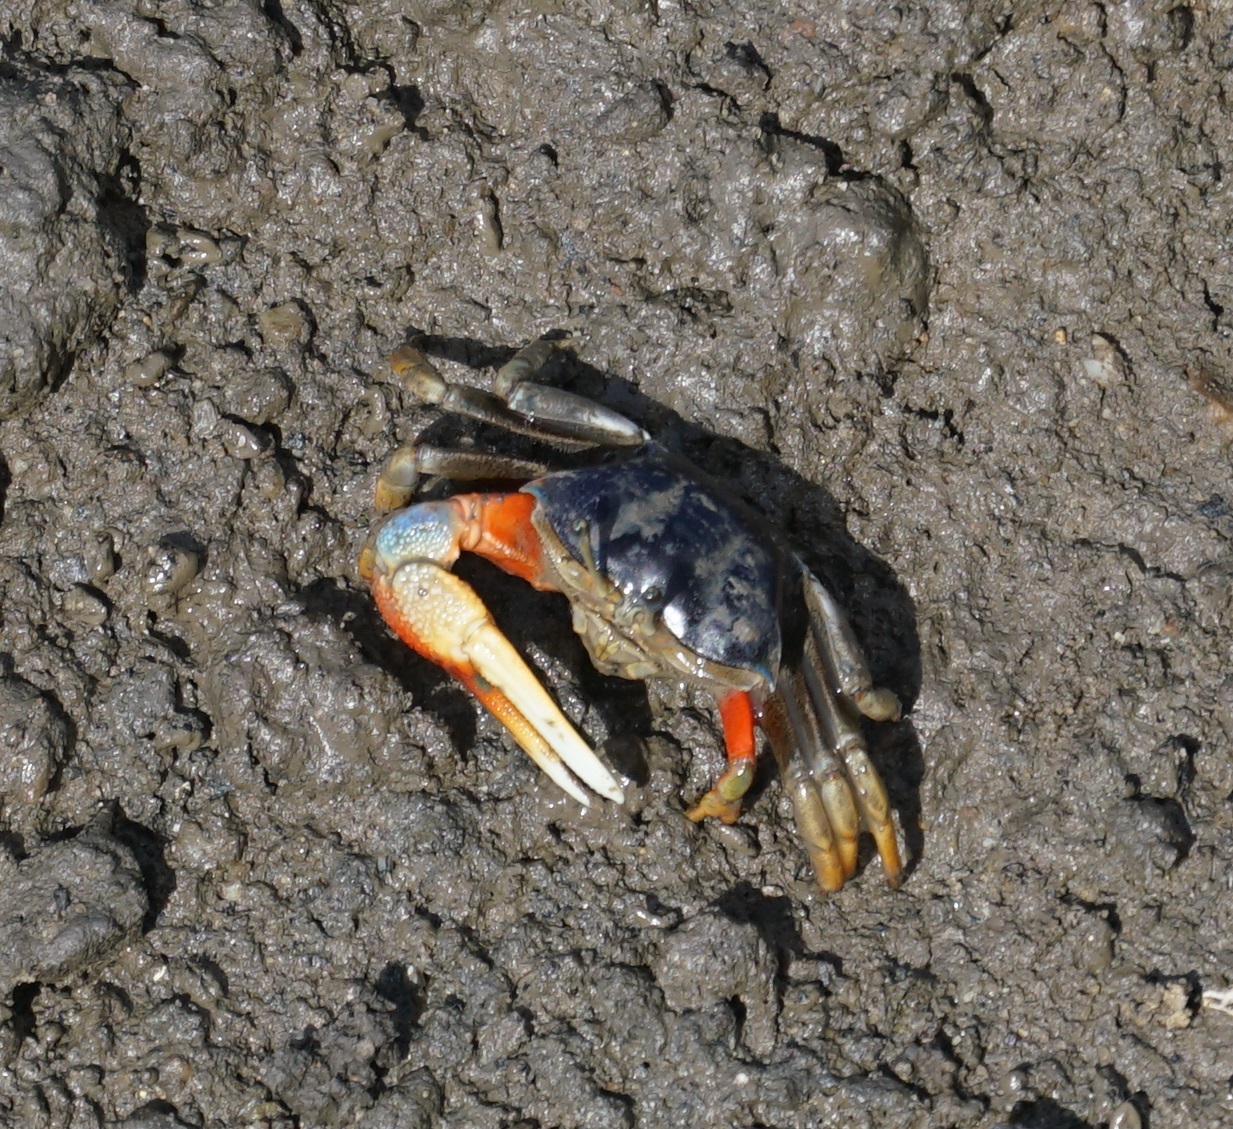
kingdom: Animalia
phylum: Arthropoda
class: Malacostraca
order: Decapoda
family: Ocypodidae
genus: Tubuca
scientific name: Tubuca dussumieri
